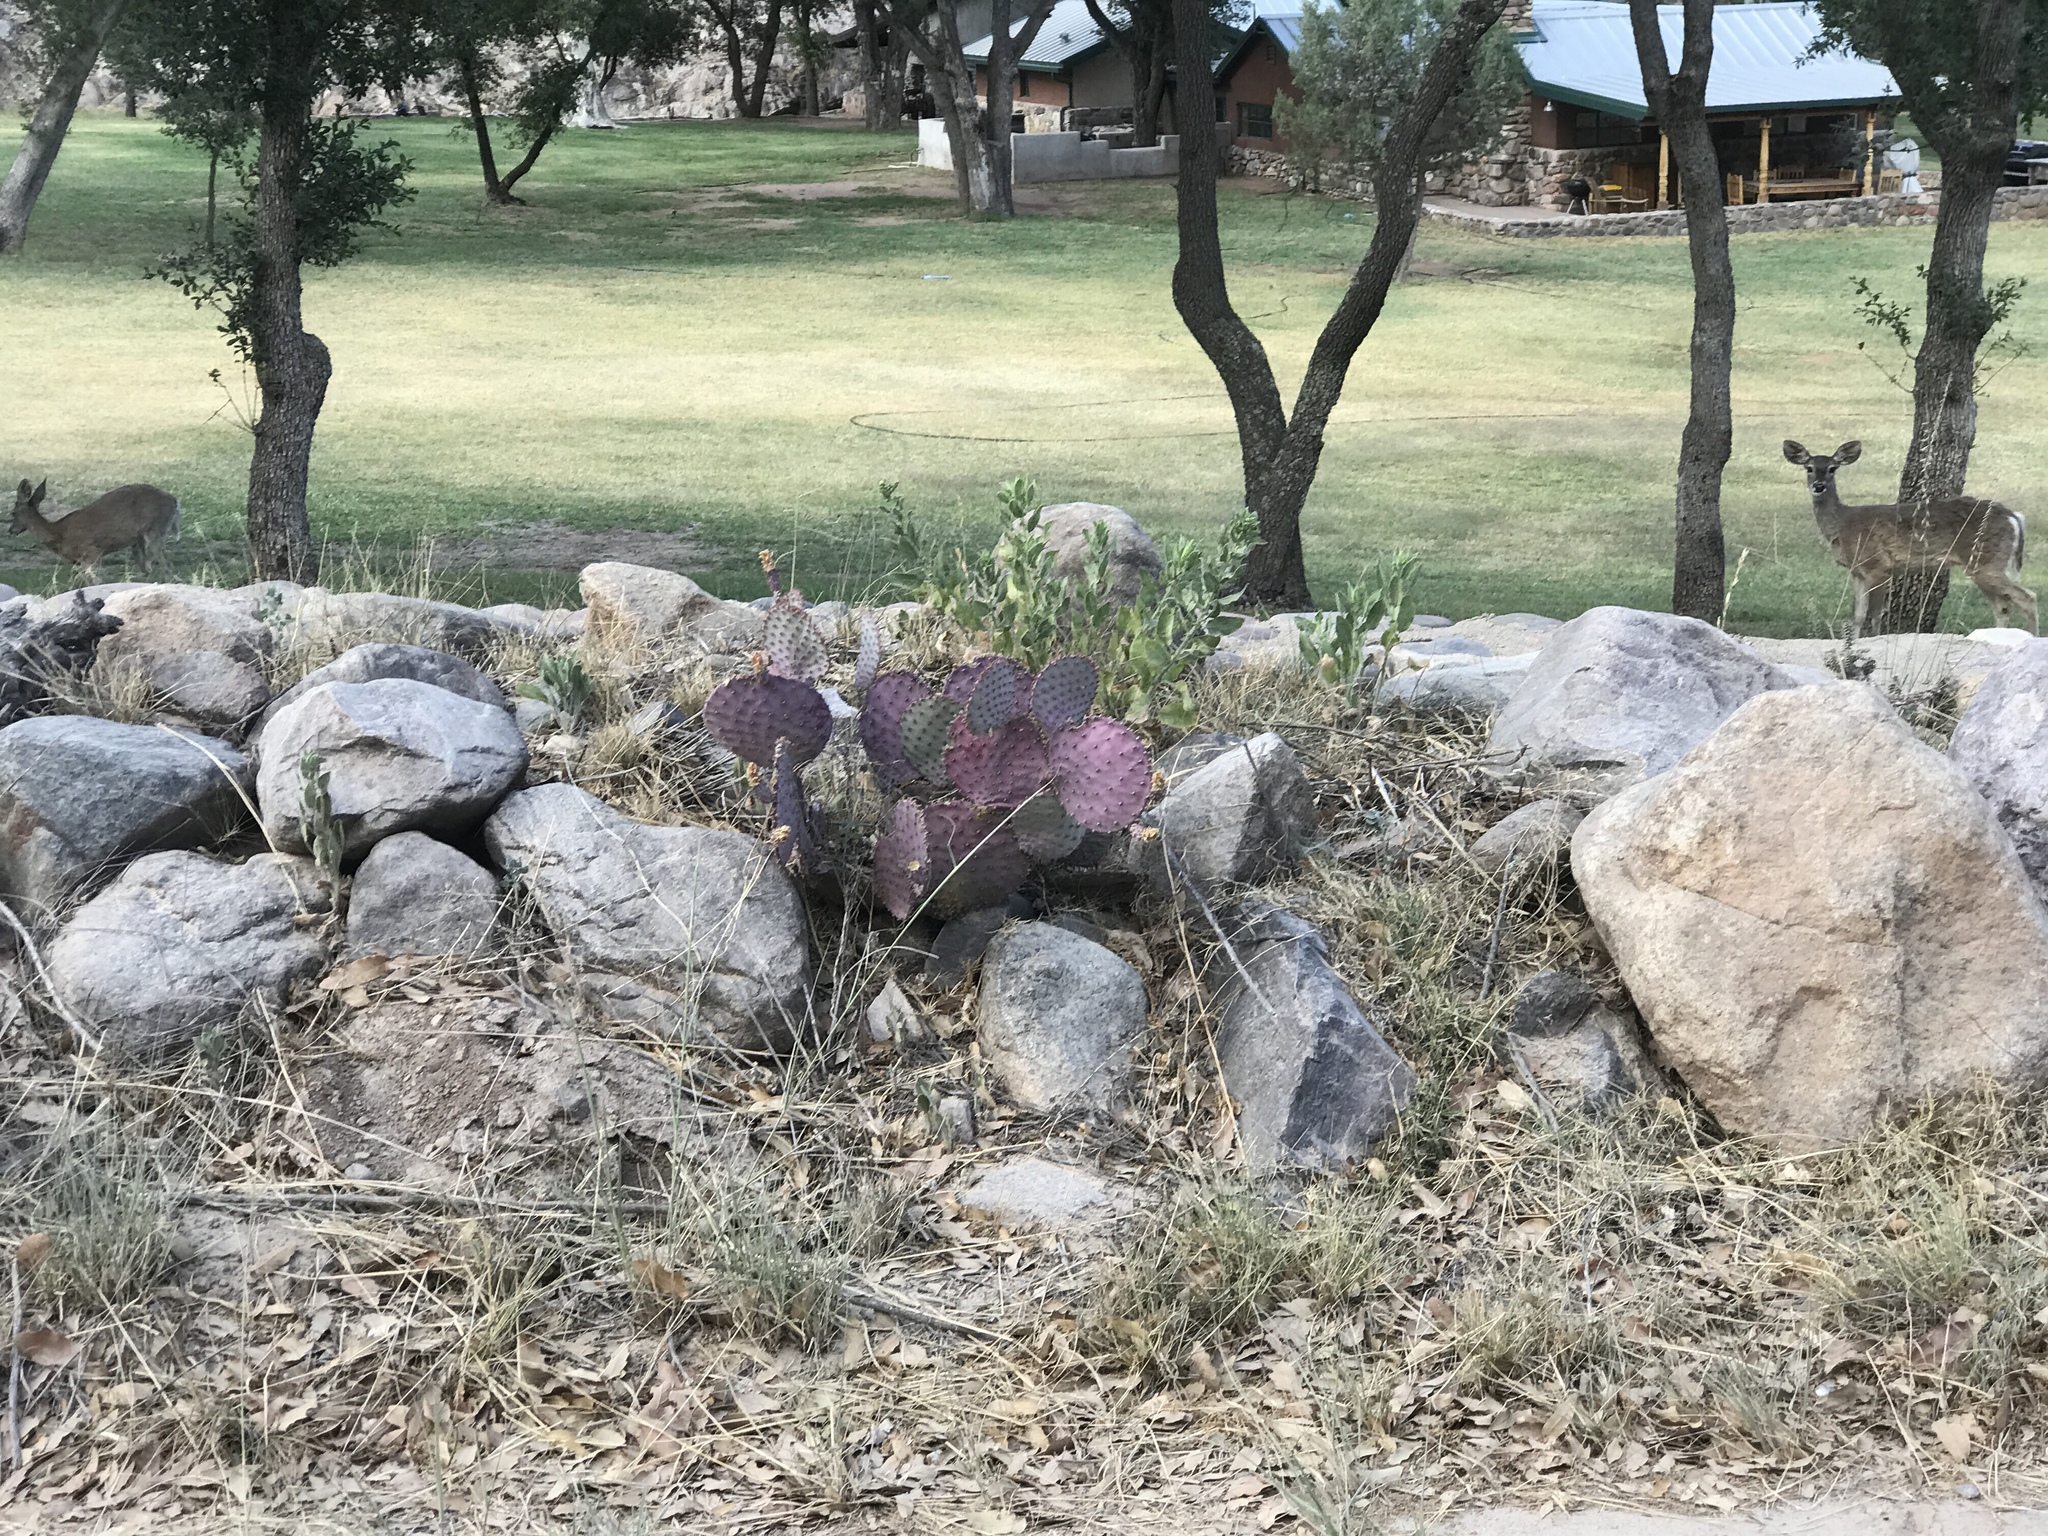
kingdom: Plantae
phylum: Tracheophyta
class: Magnoliopsida
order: Caryophyllales
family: Cactaceae
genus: Opuntia
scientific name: Opuntia macrocentra
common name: Purple prickly-pear
